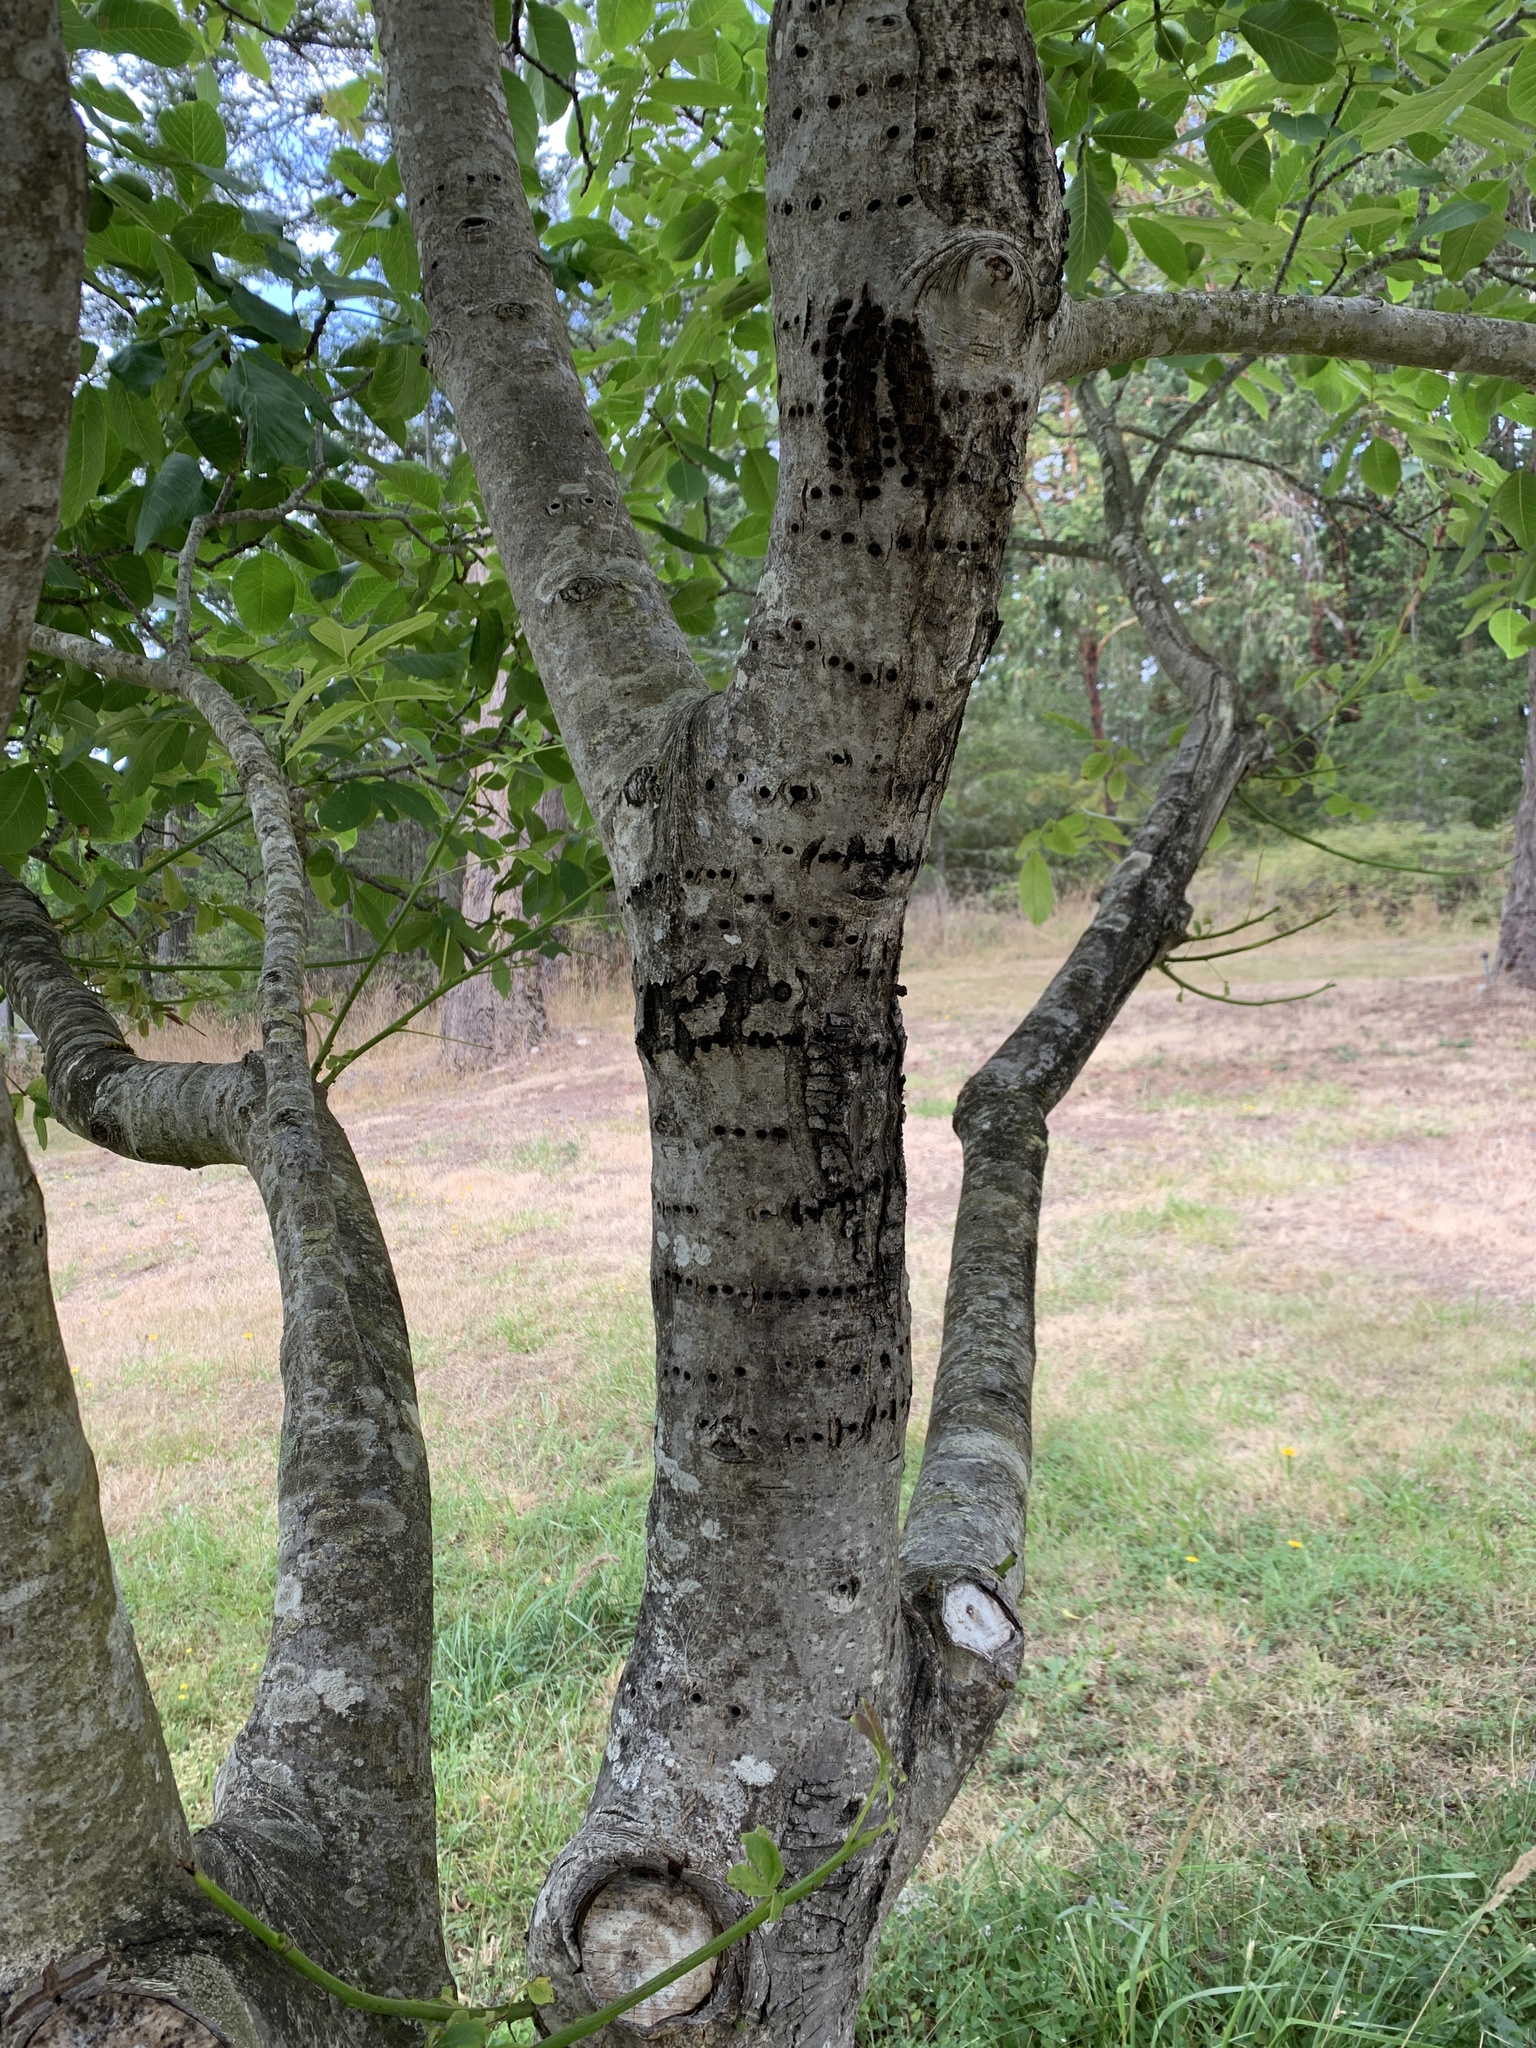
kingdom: Animalia
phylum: Chordata
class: Aves
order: Piciformes
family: Picidae
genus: Sphyrapicus
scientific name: Sphyrapicus ruber
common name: Red-breasted sapsucker
